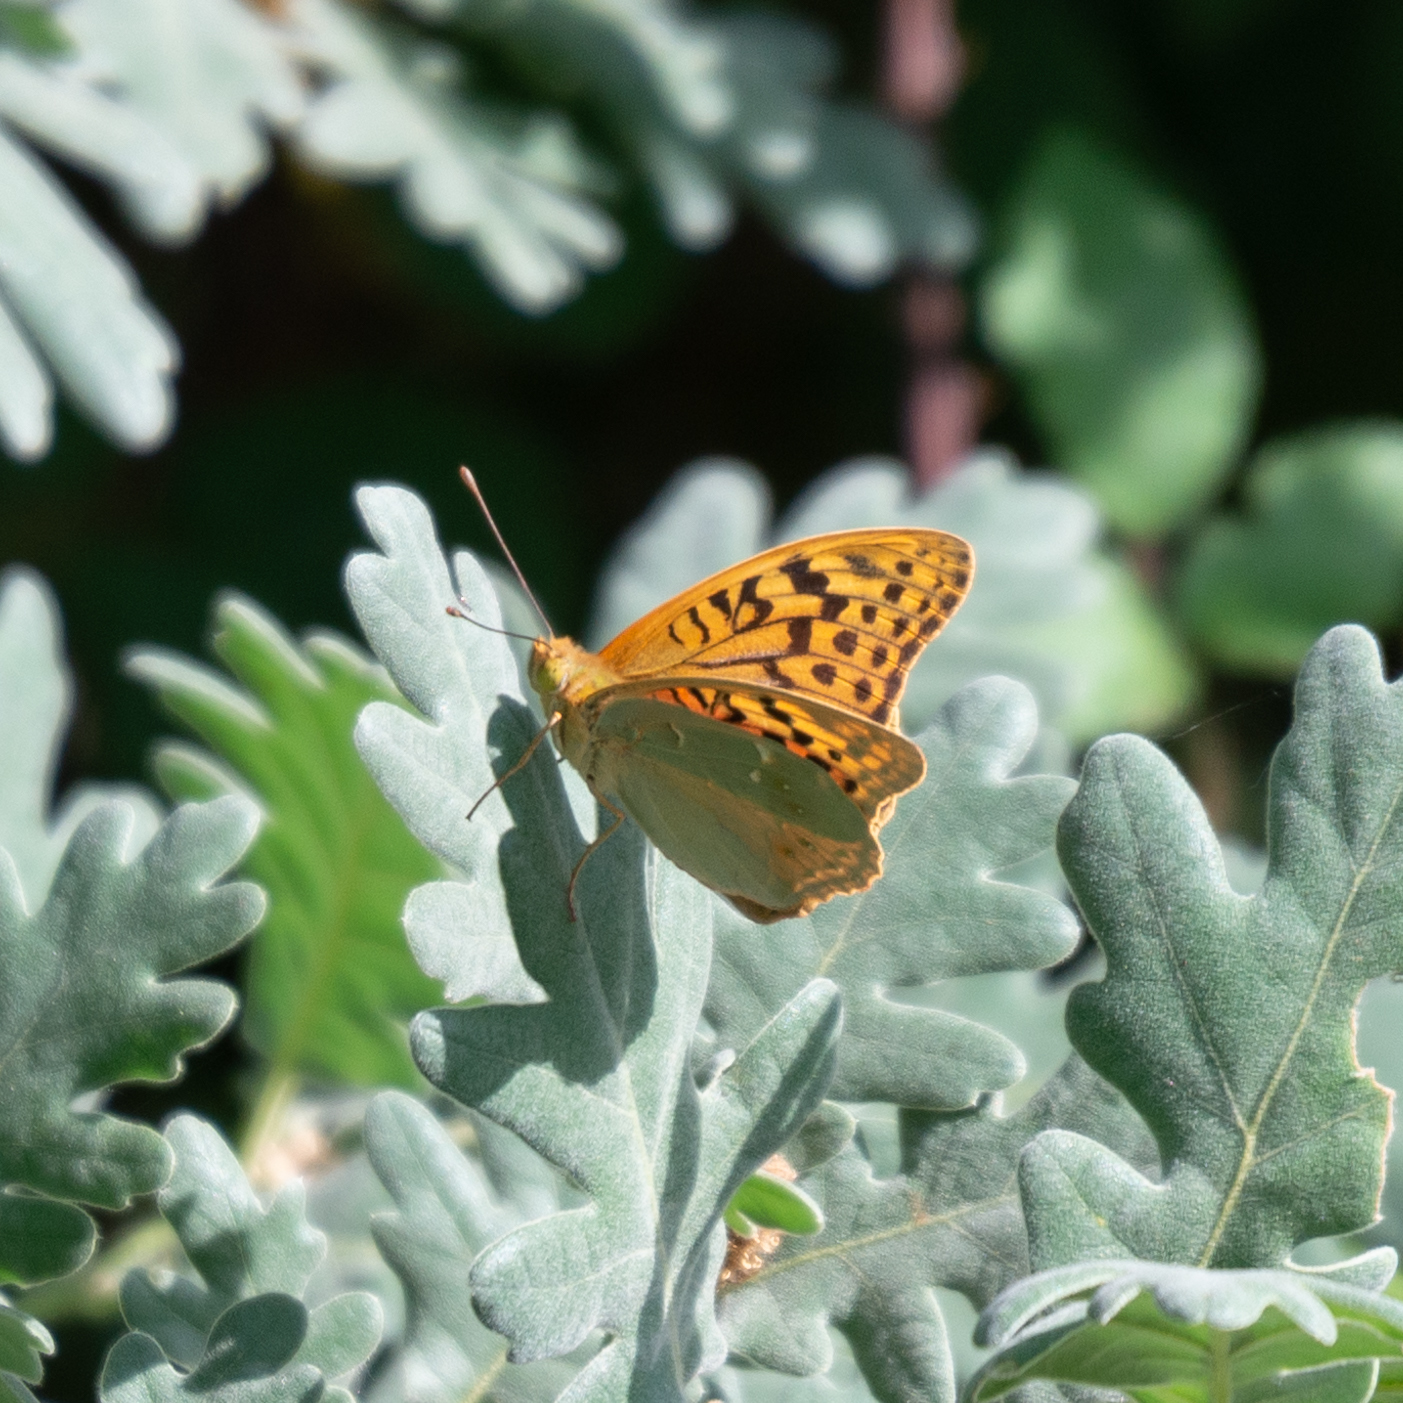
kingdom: Animalia
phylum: Arthropoda
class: Insecta
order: Lepidoptera
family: Nymphalidae
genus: Damora
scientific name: Damora pandora
